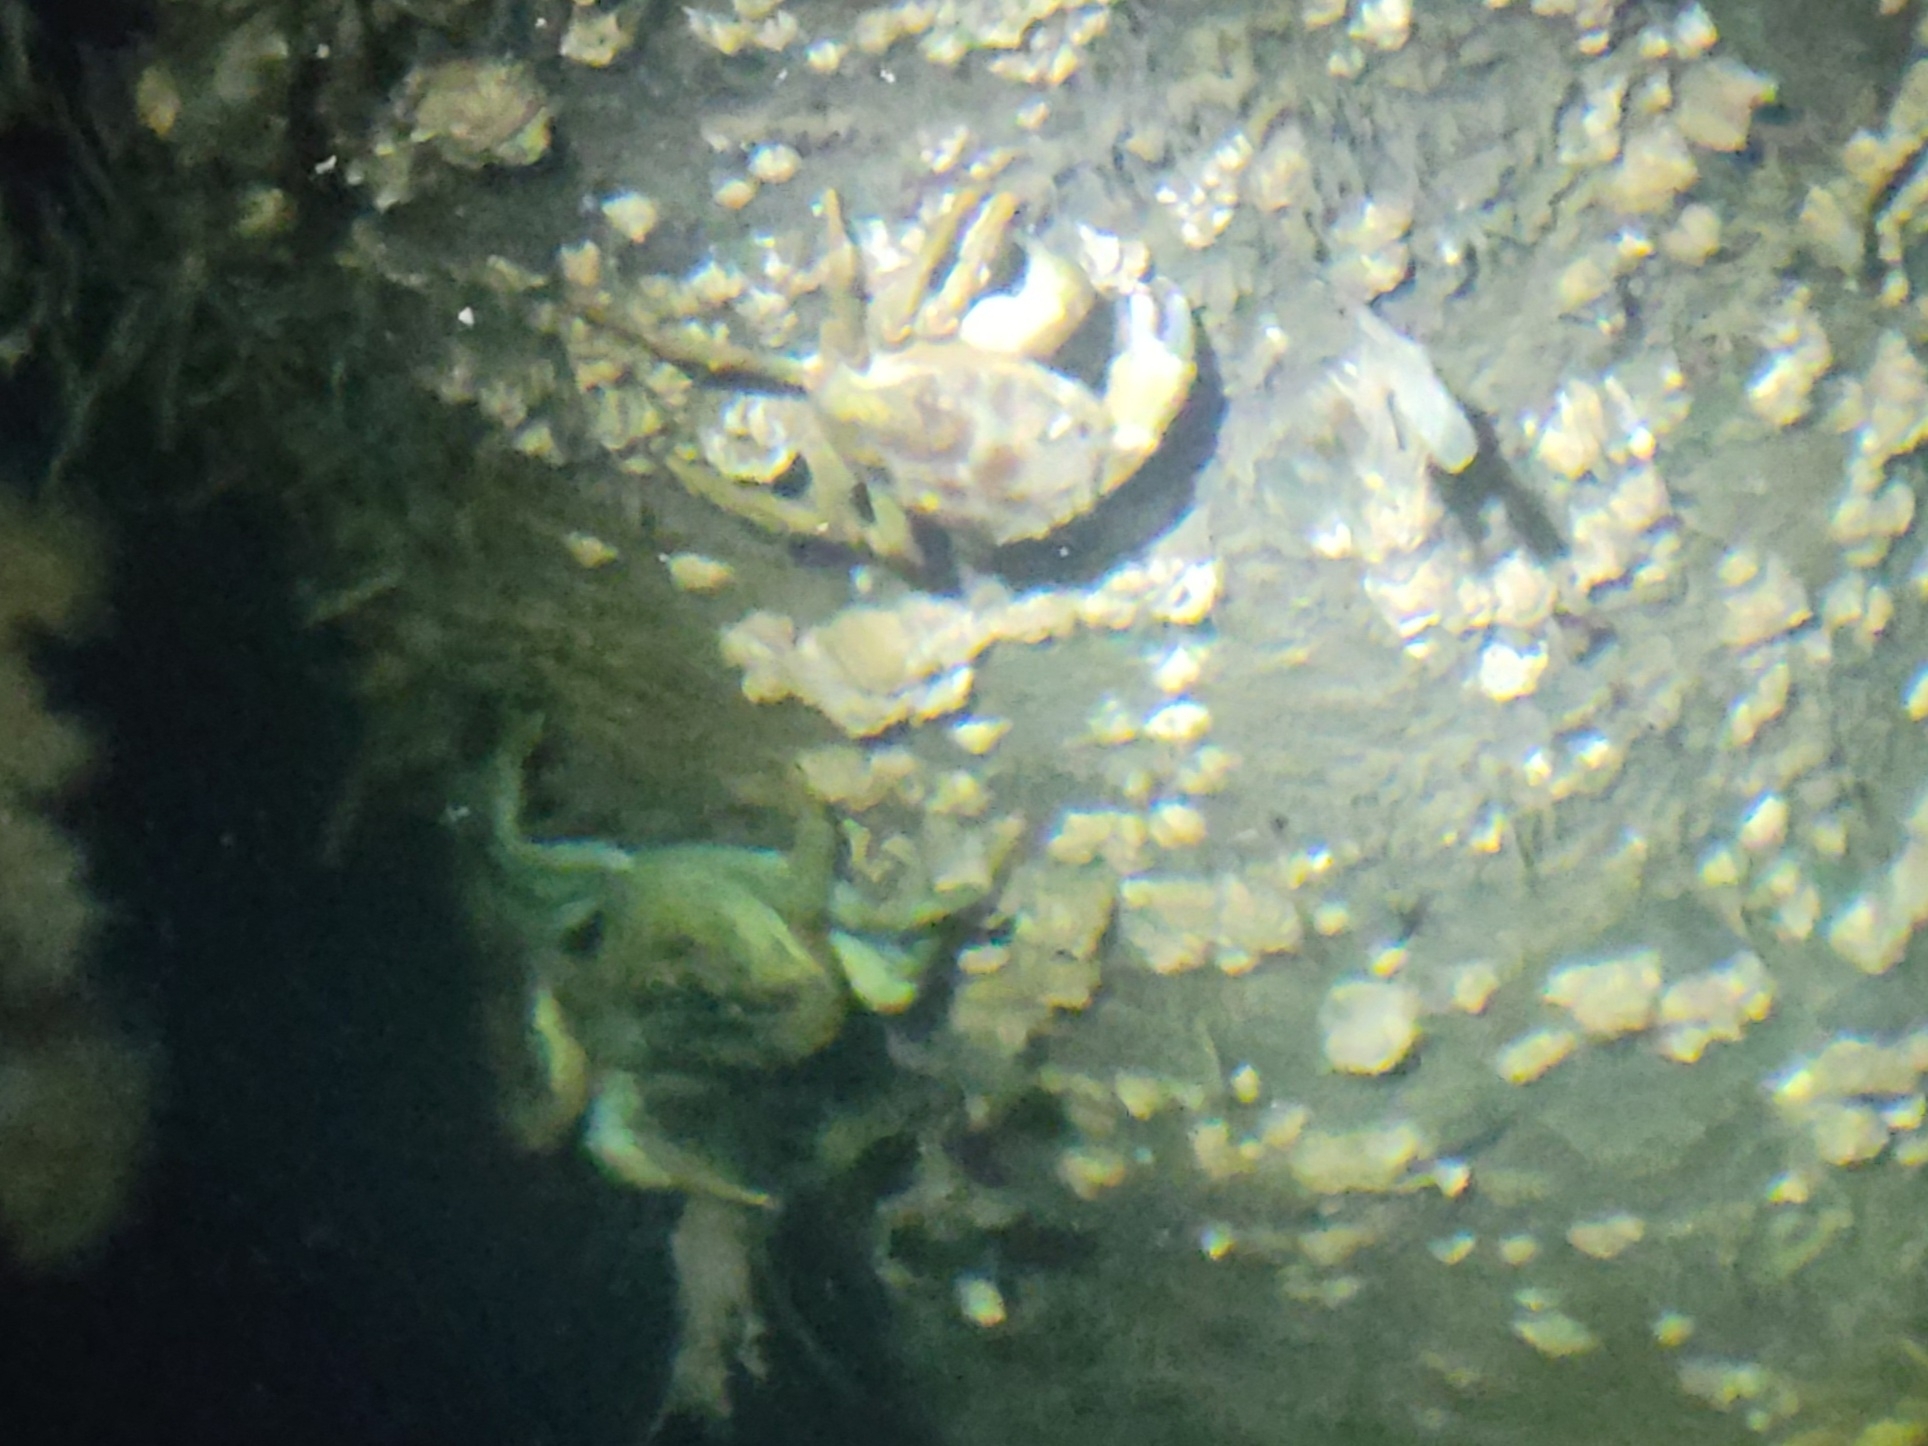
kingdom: Animalia
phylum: Arthropoda
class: Malacostraca
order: Decapoda
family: Carcinidae
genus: Carcinus
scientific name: Carcinus maenas
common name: European green crab
